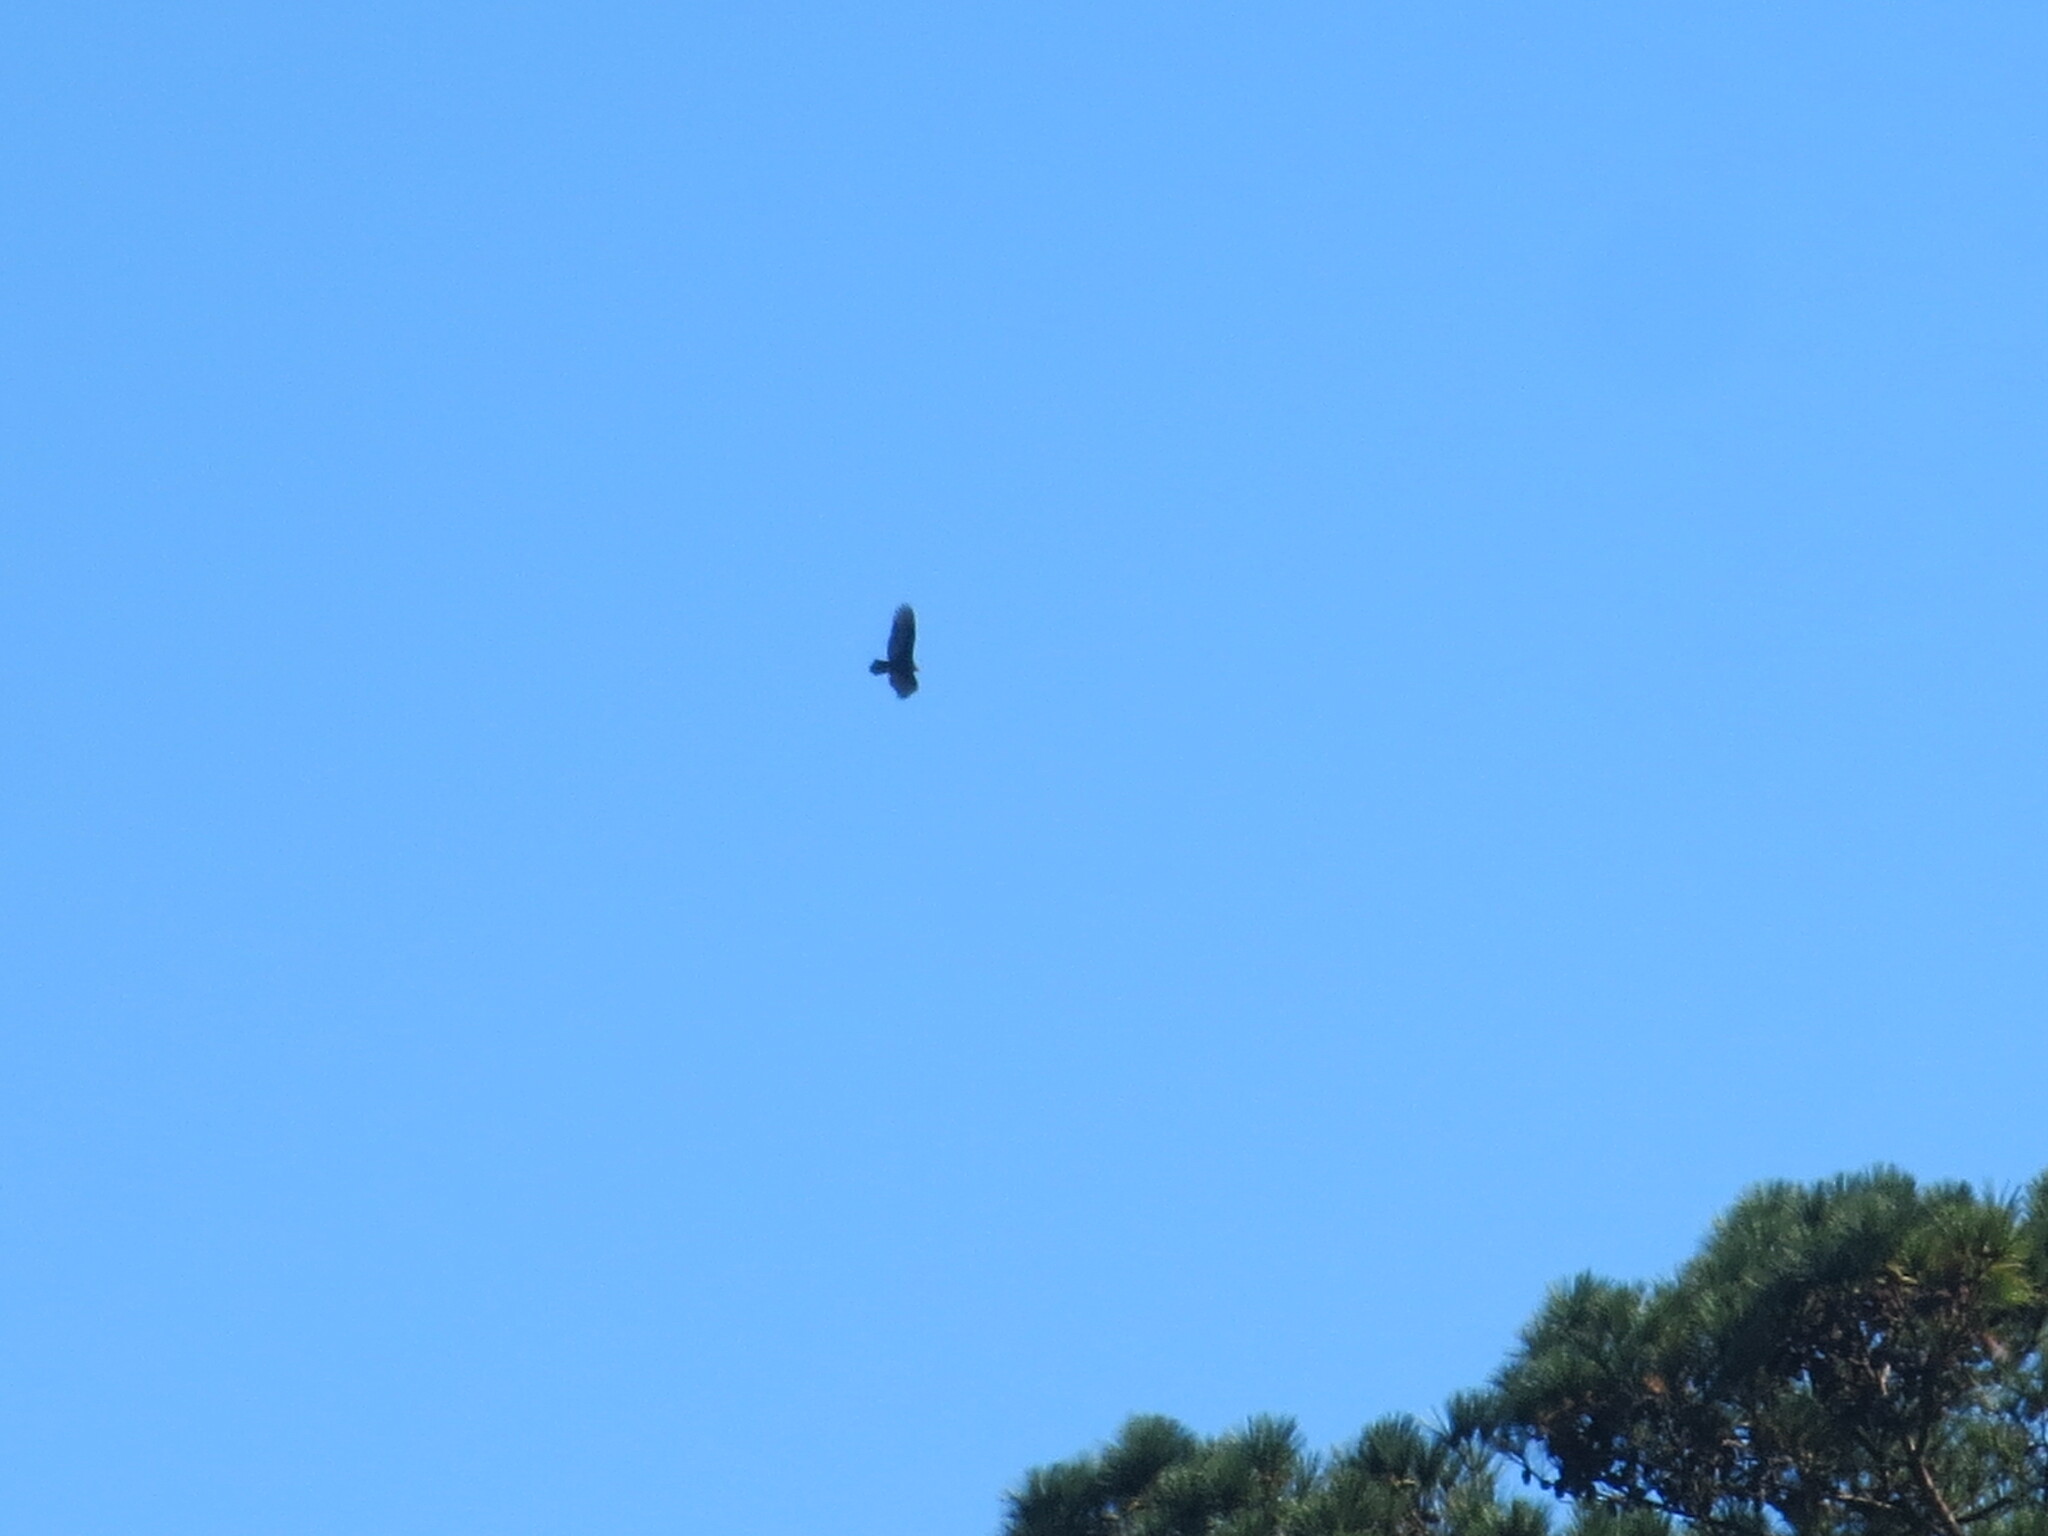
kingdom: Animalia
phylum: Chordata
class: Aves
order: Accipitriformes
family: Cathartidae
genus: Cathartes
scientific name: Cathartes aura
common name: Turkey vulture
